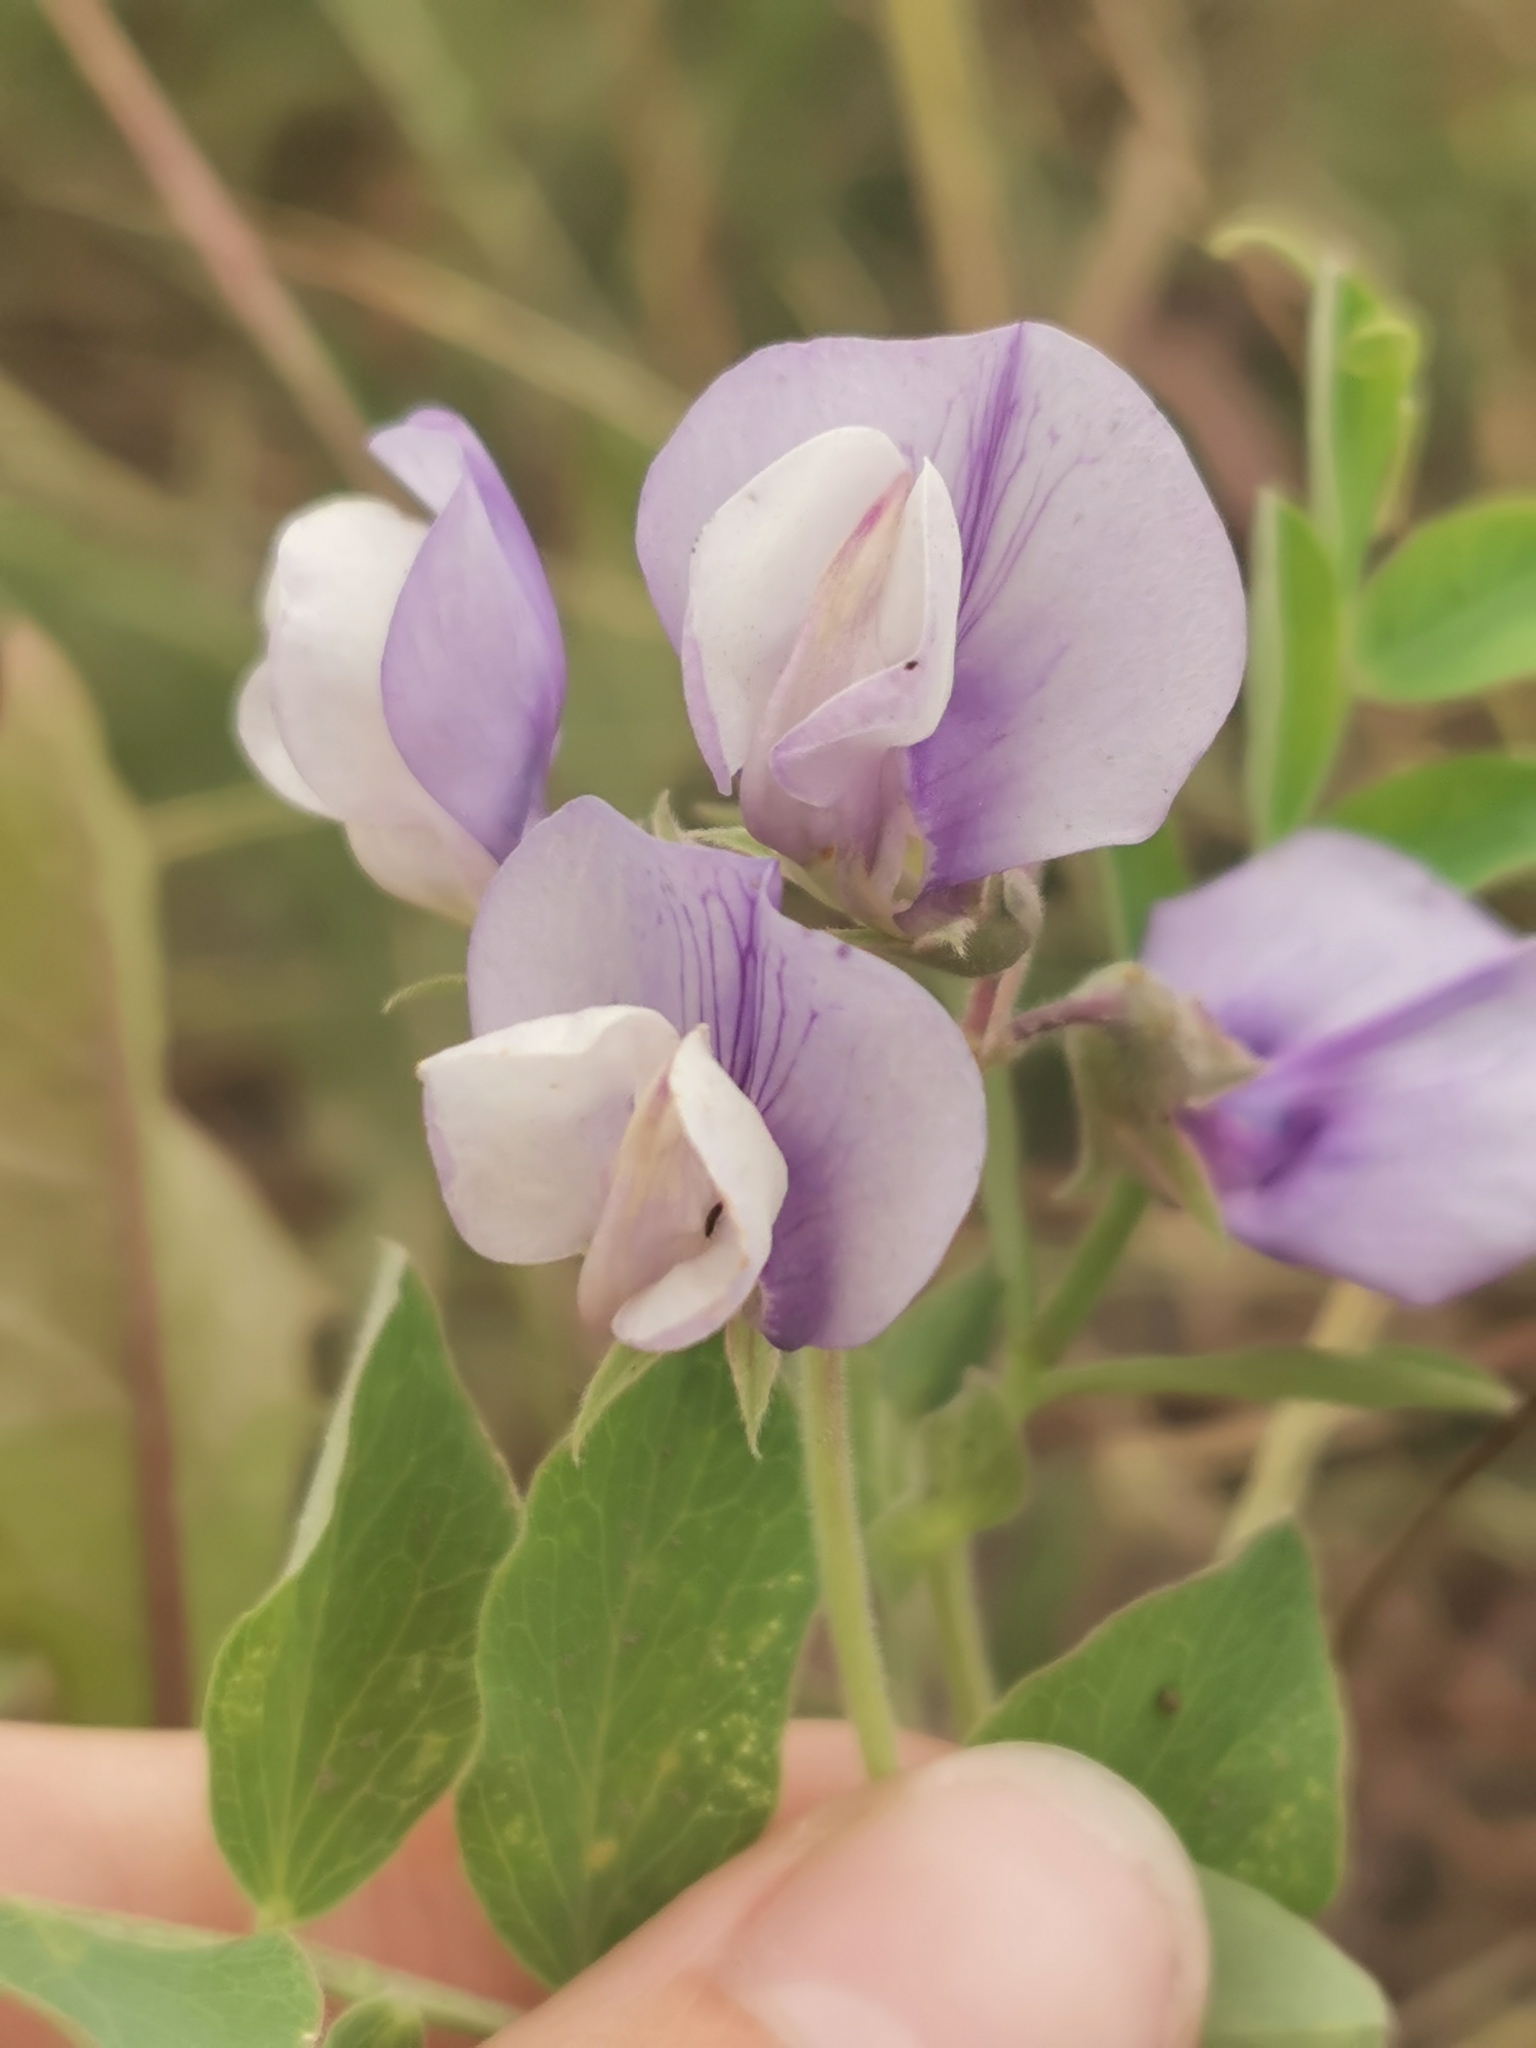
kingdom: Plantae
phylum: Tracheophyta
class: Magnoliopsida
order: Fabales
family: Fabaceae
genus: Lathyrus
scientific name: Lathyrus japonicus
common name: Sea pea
